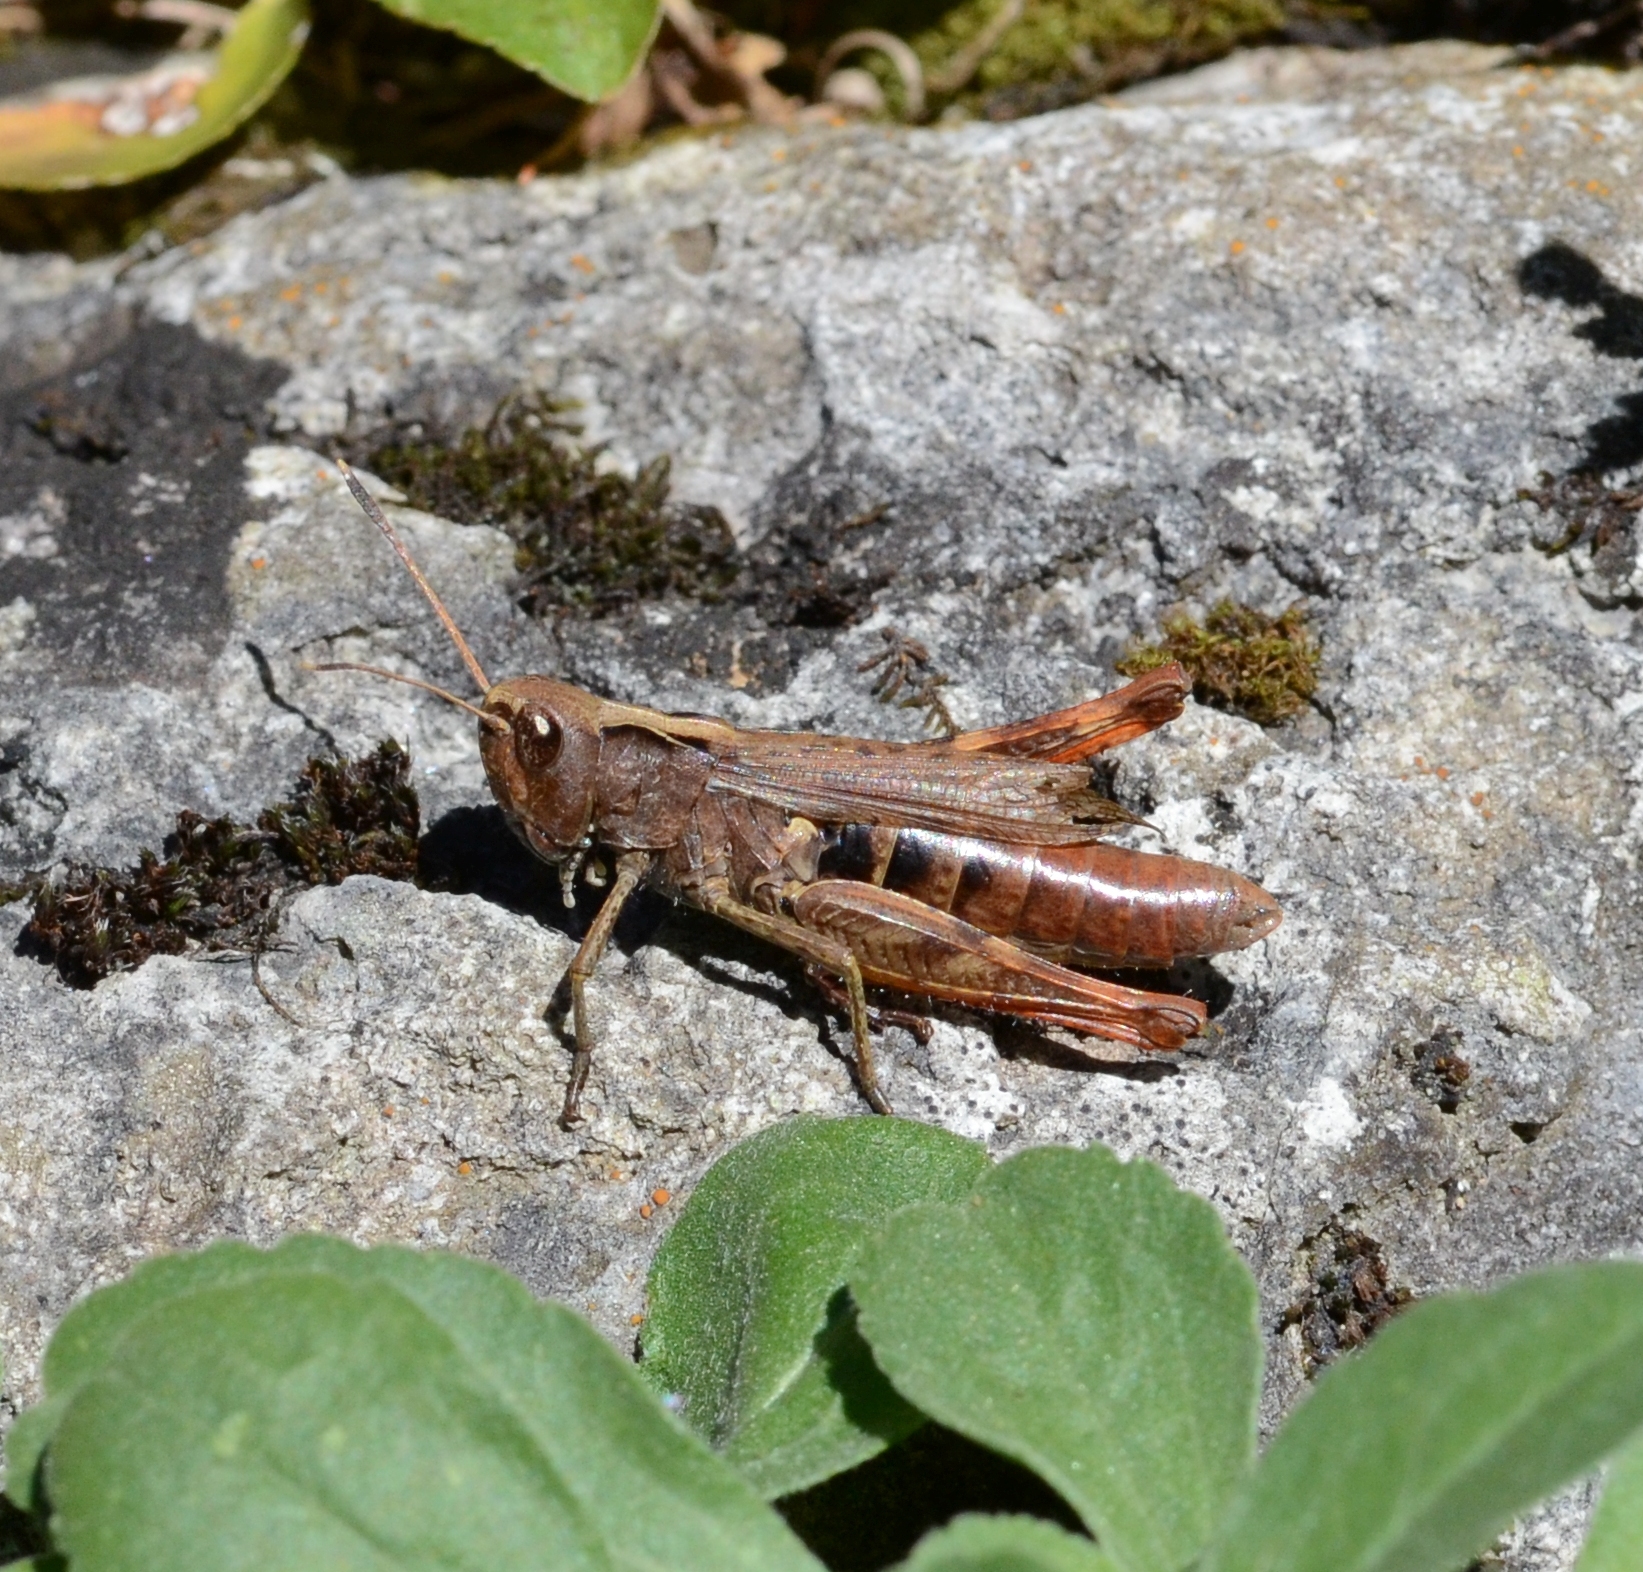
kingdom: Animalia
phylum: Arthropoda
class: Insecta
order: Orthoptera
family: Acrididae
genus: Gomphocerippus
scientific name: Gomphocerippus rufus
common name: Rufous grasshopper
